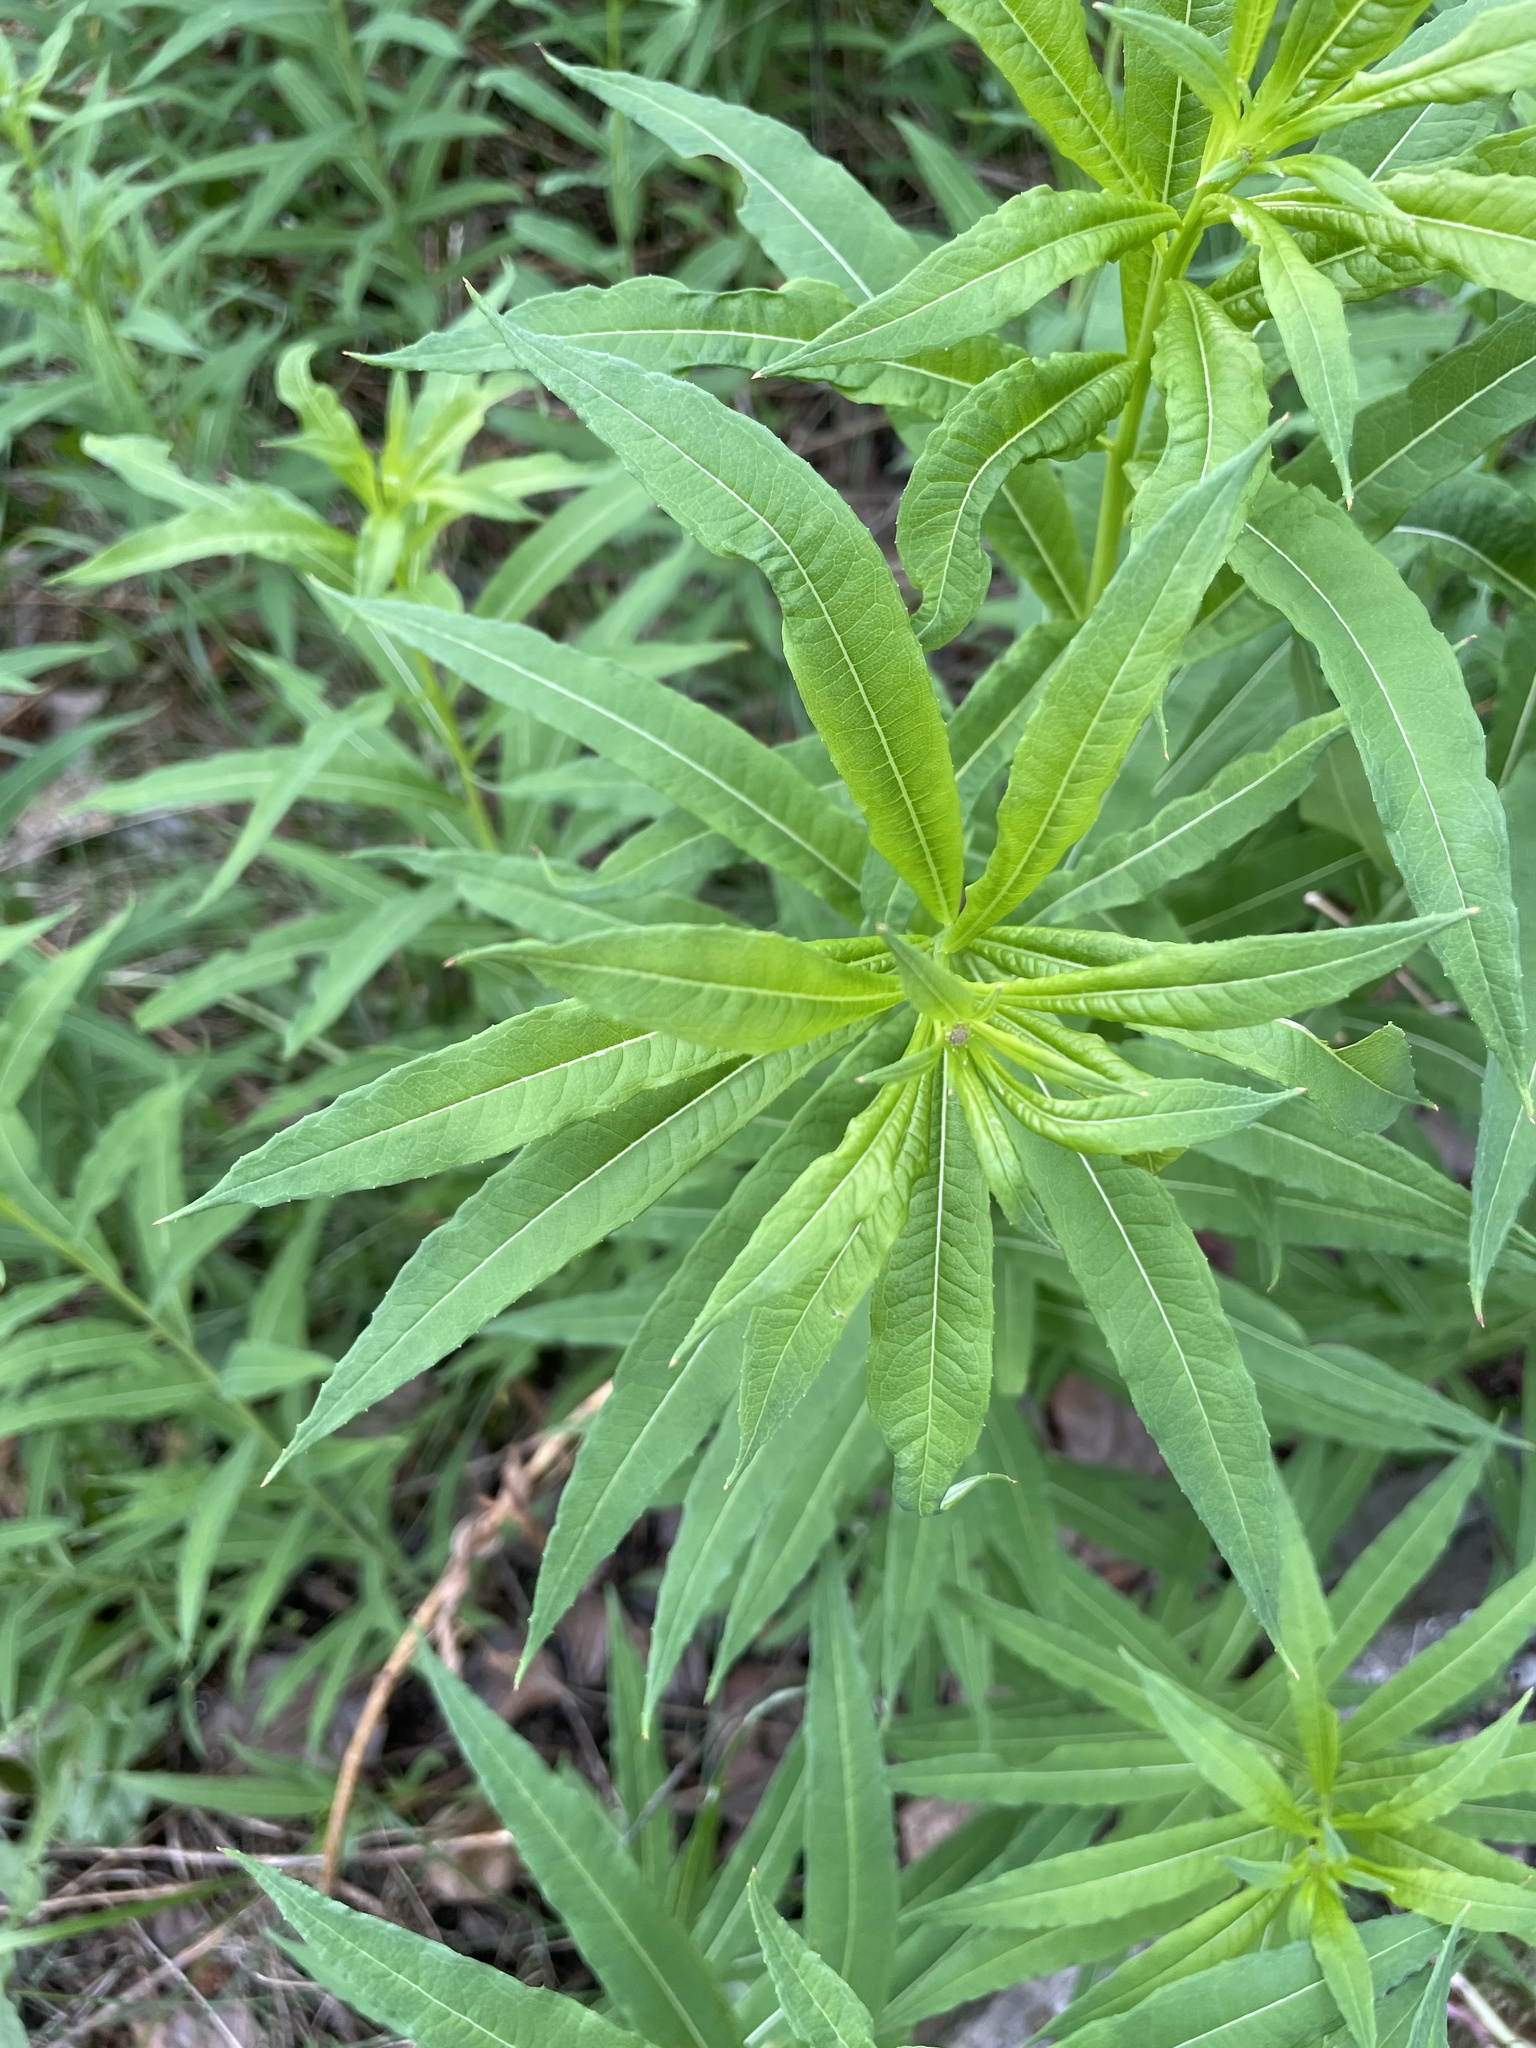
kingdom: Plantae
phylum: Tracheophyta
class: Magnoliopsida
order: Myrtales
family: Onagraceae
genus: Chamaenerion
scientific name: Chamaenerion angustifolium
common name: Fireweed
